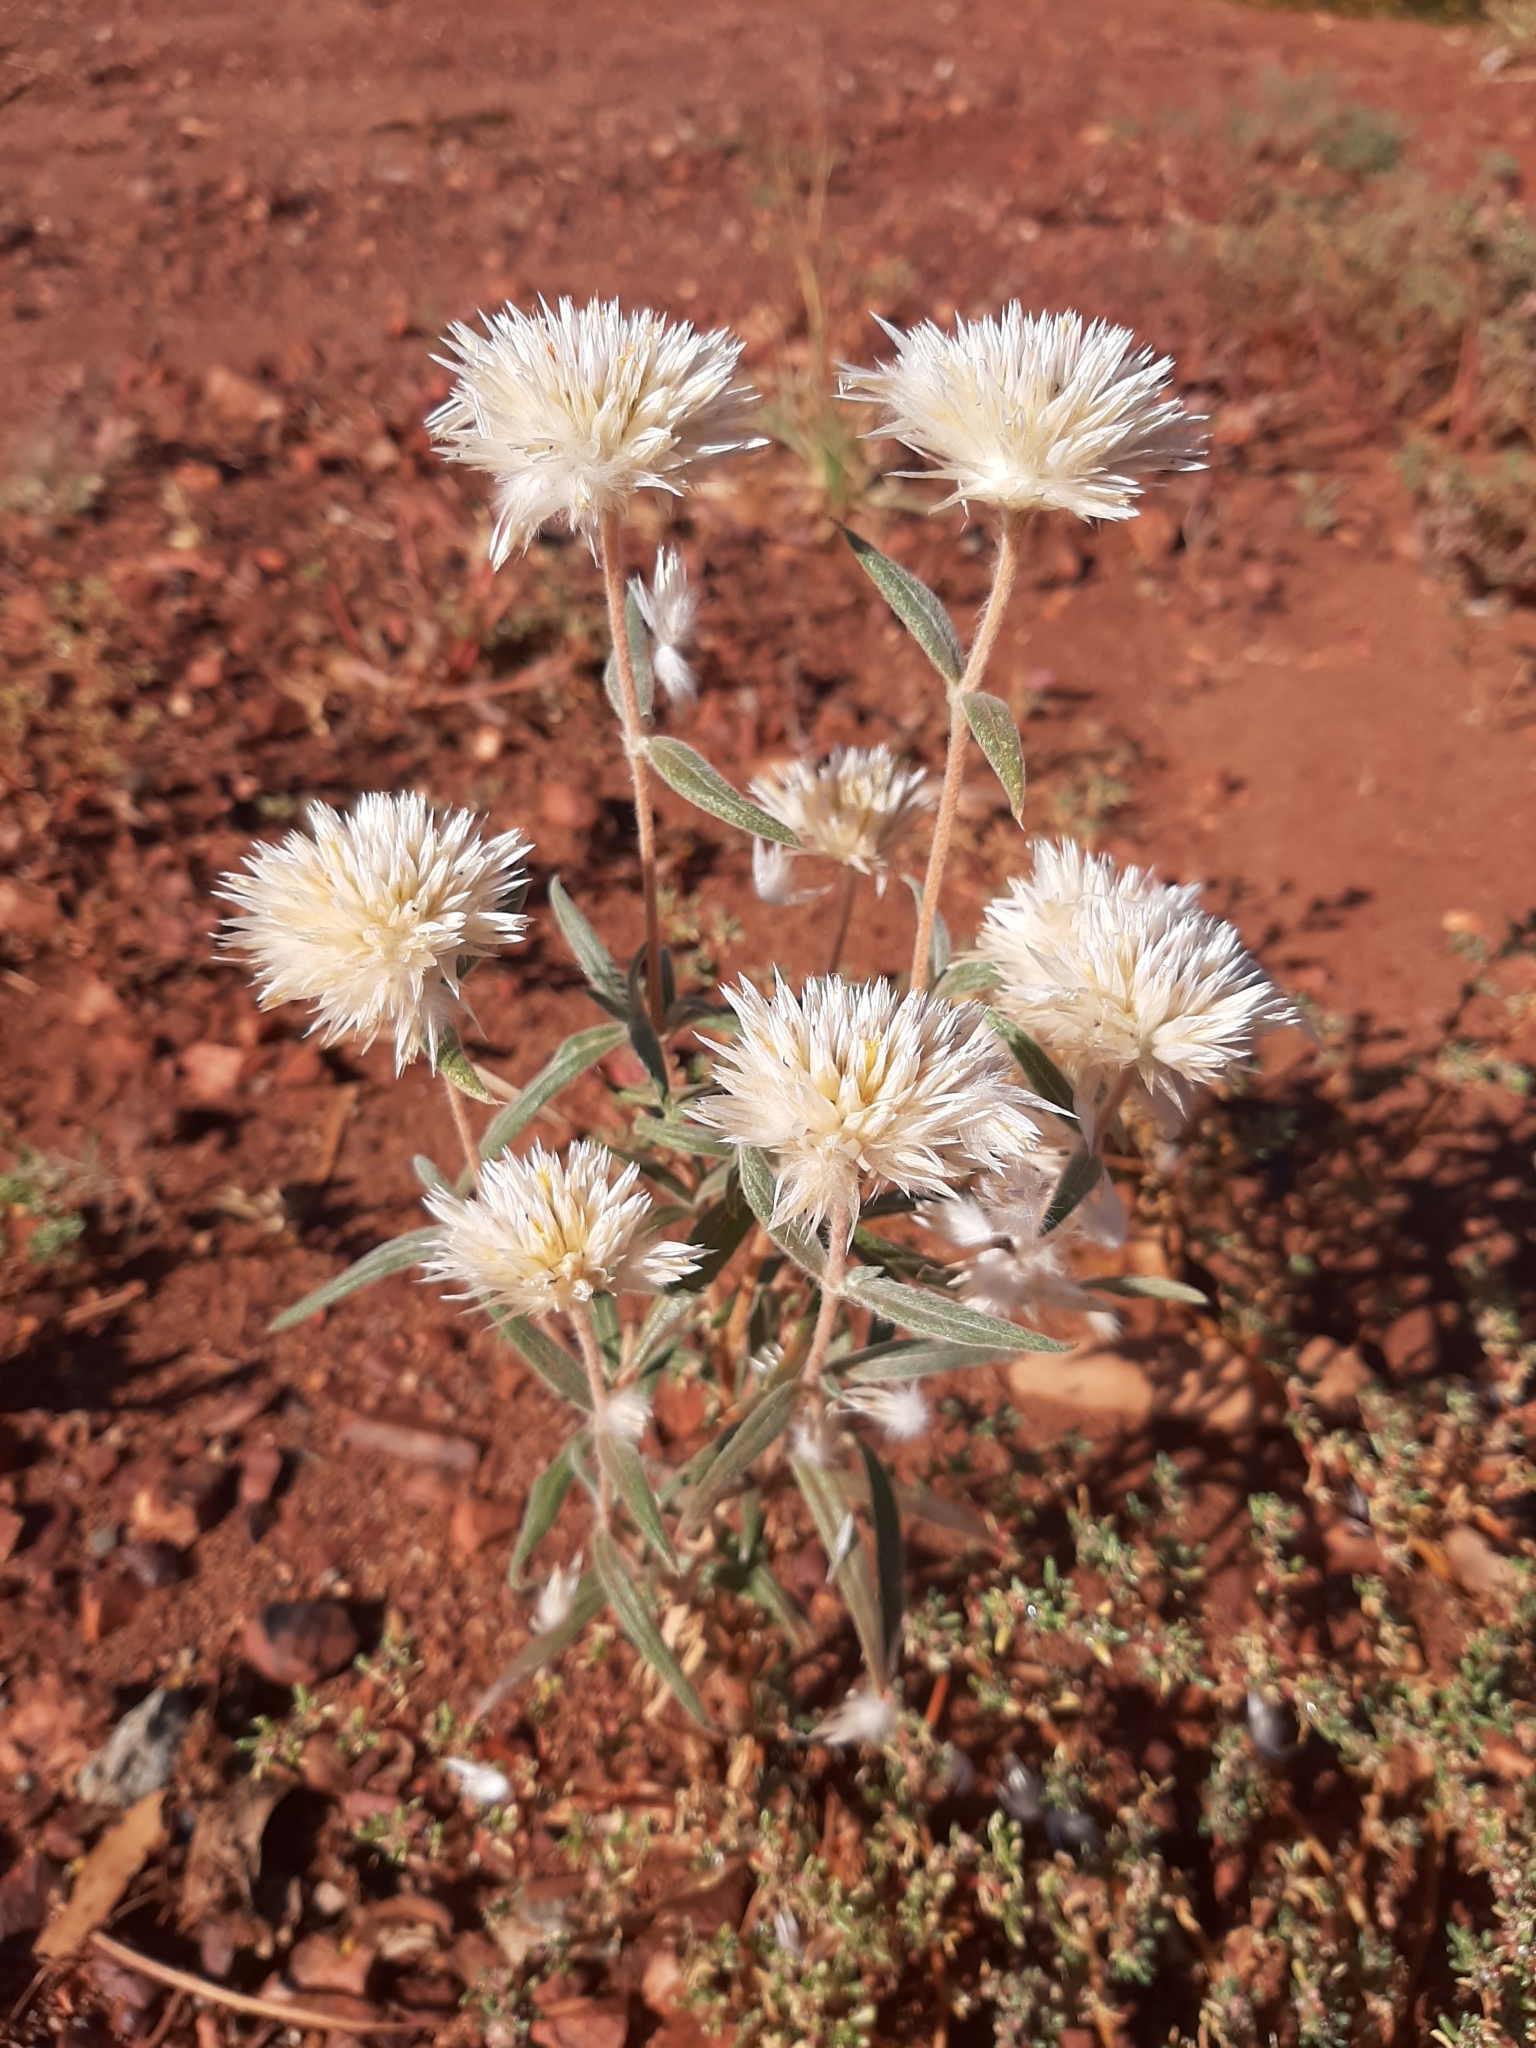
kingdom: Plantae
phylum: Tracheophyta
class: Magnoliopsida
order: Caryophyllales
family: Amaranthaceae
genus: Gomphrena
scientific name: Gomphrena kanisii
